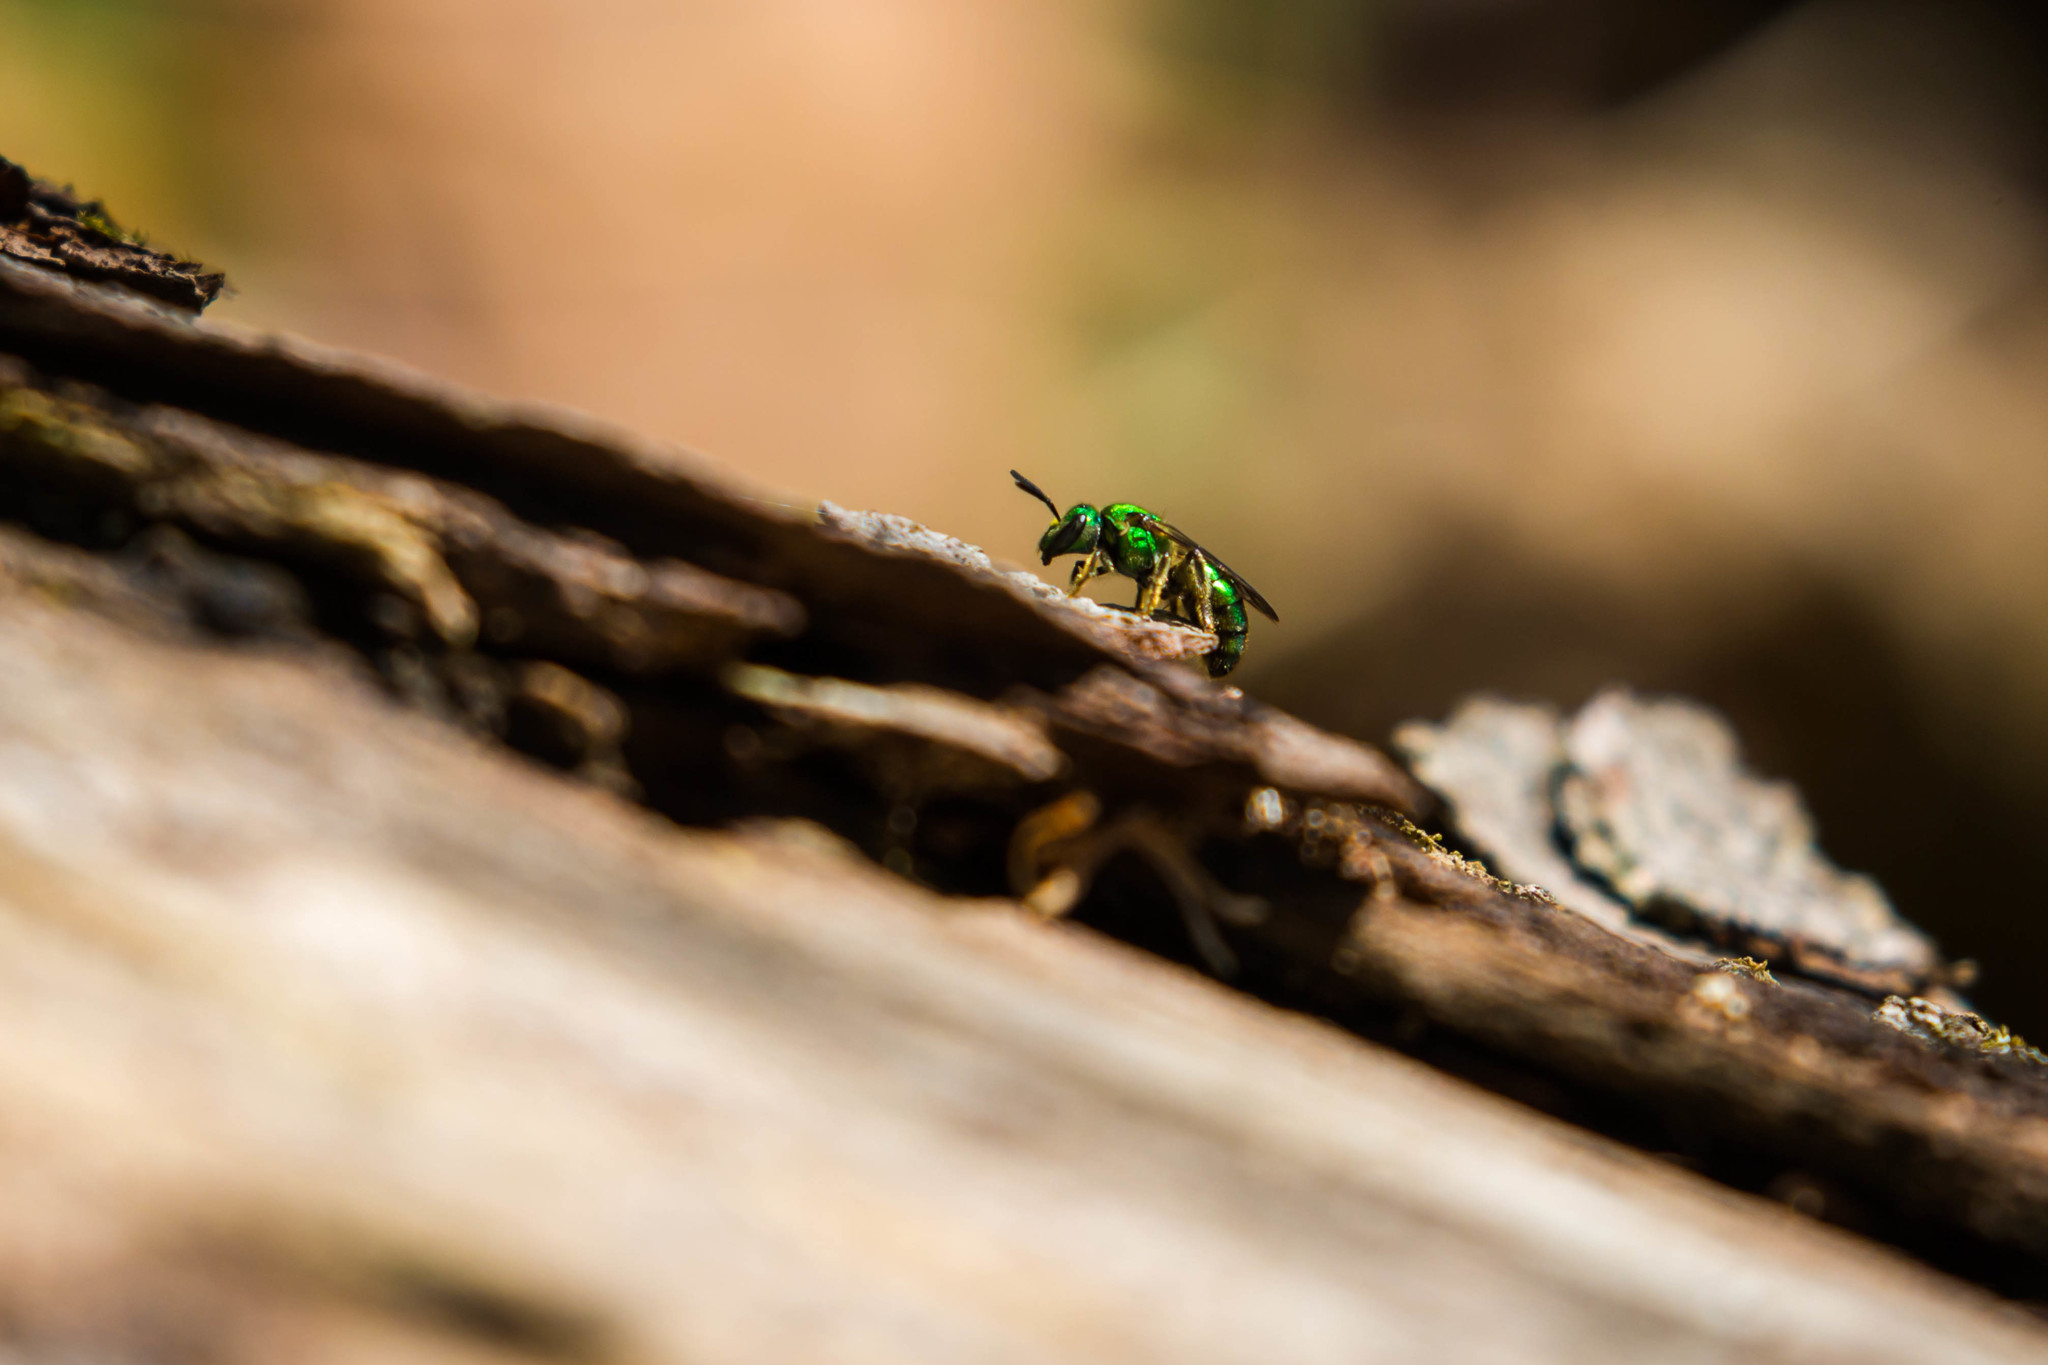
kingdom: Animalia
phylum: Arthropoda
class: Insecta
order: Hymenoptera
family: Halictidae
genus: Augochlora
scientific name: Augochlora pura
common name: Pure green sweat bee
